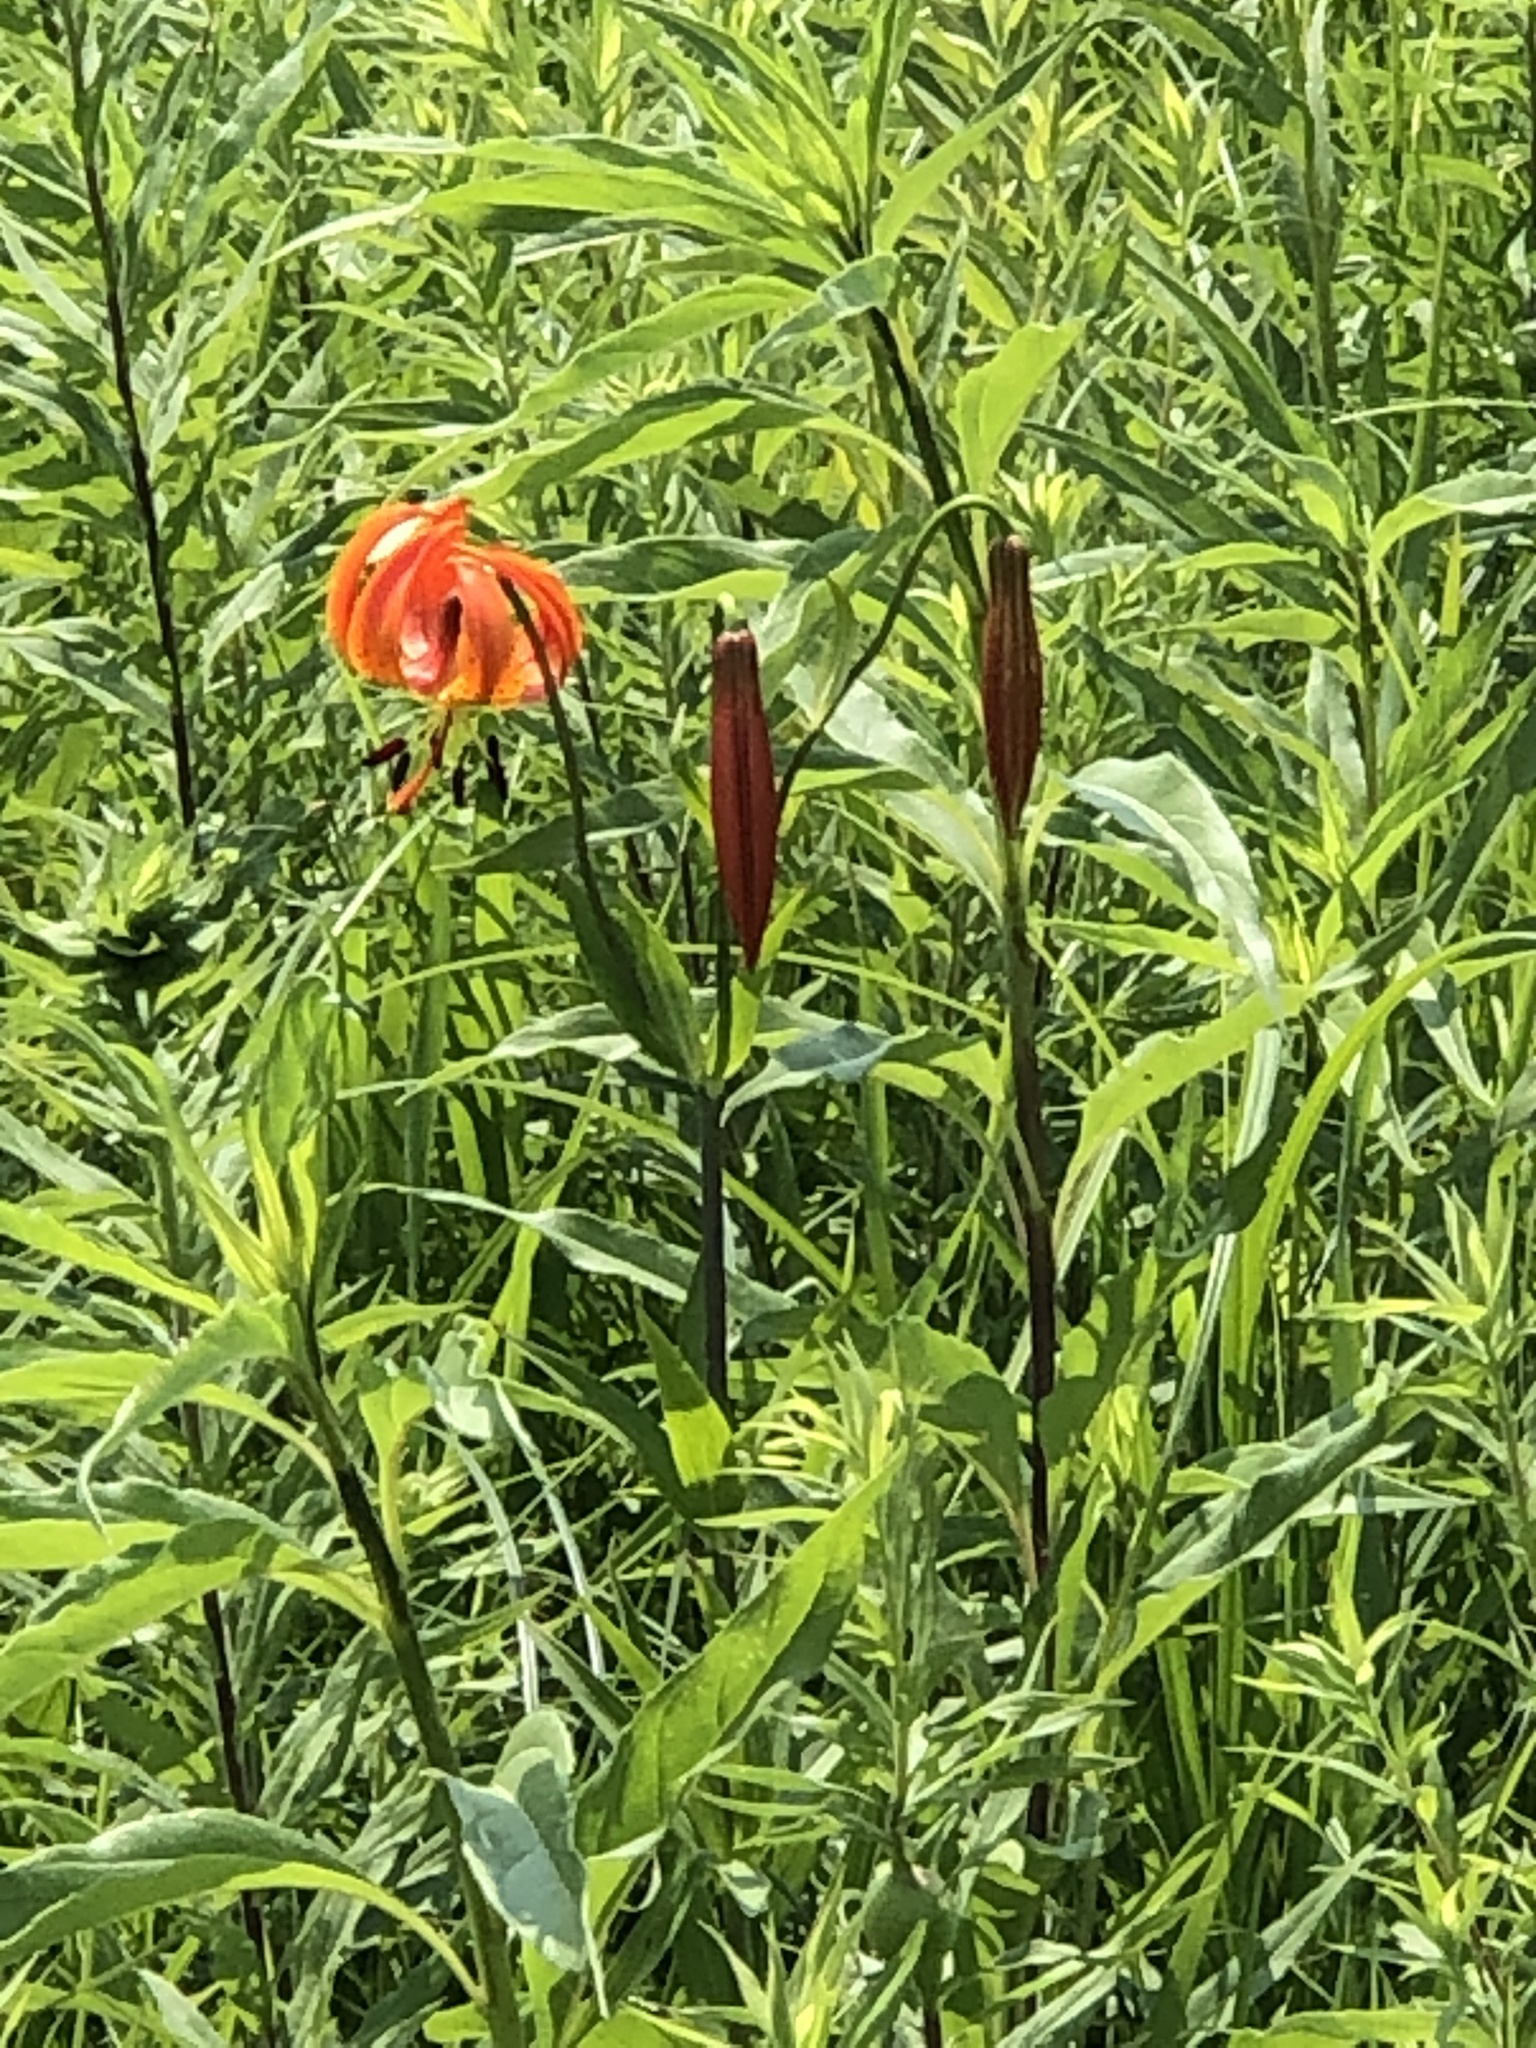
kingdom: Plantae
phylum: Tracheophyta
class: Liliopsida
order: Liliales
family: Liliaceae
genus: Lilium
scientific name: Lilium michiganense
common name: Michigan lily
